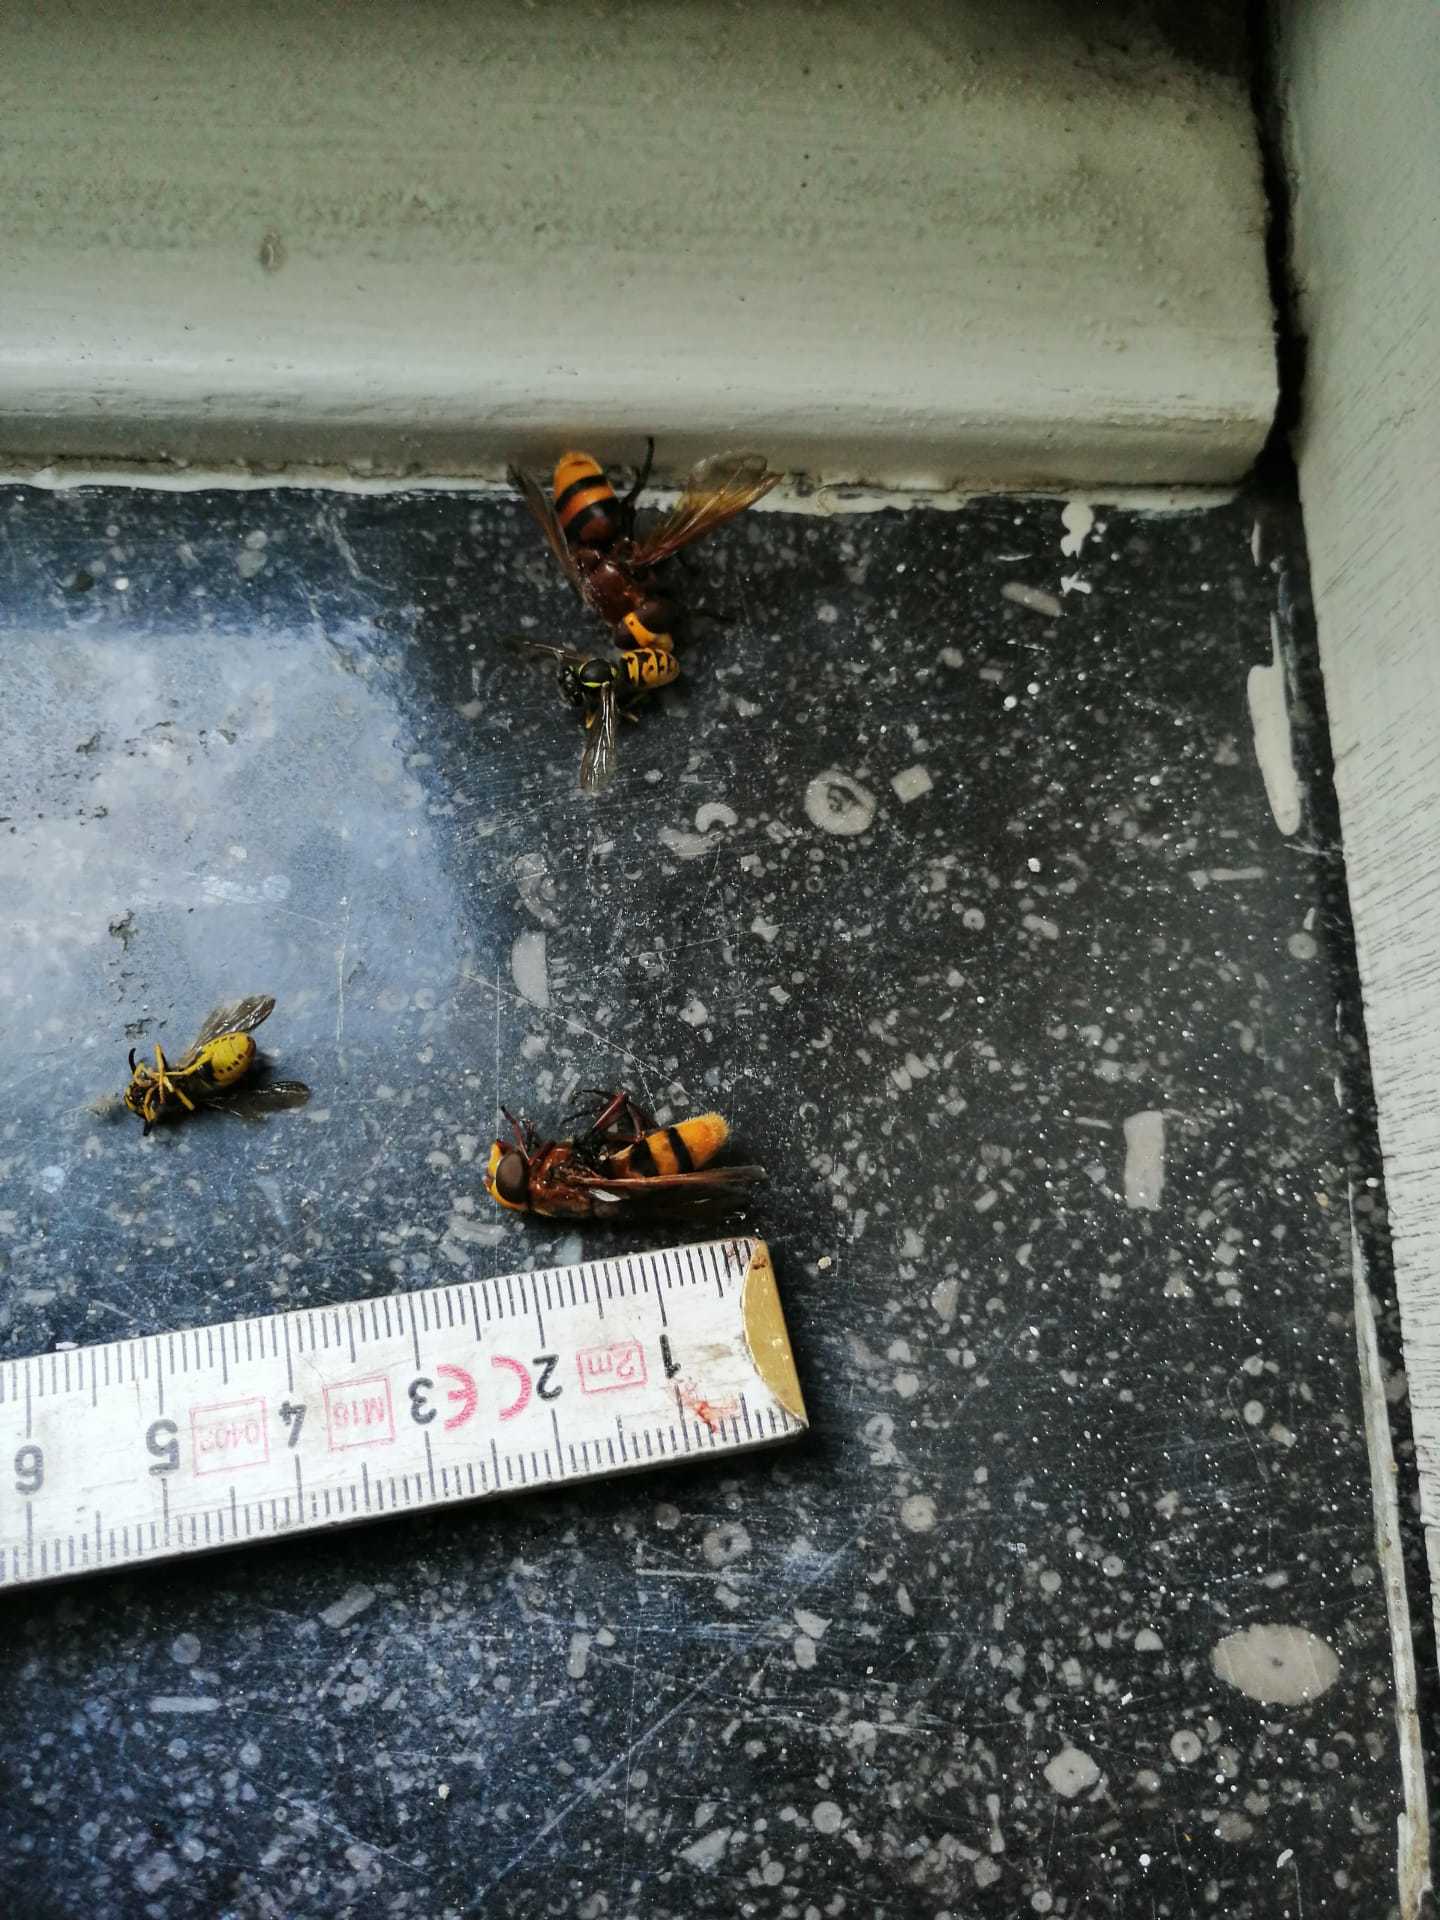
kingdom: Animalia
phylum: Arthropoda
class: Insecta
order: Diptera
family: Syrphidae
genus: Volucella
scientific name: Volucella zonaria
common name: Hornet hoverfly
